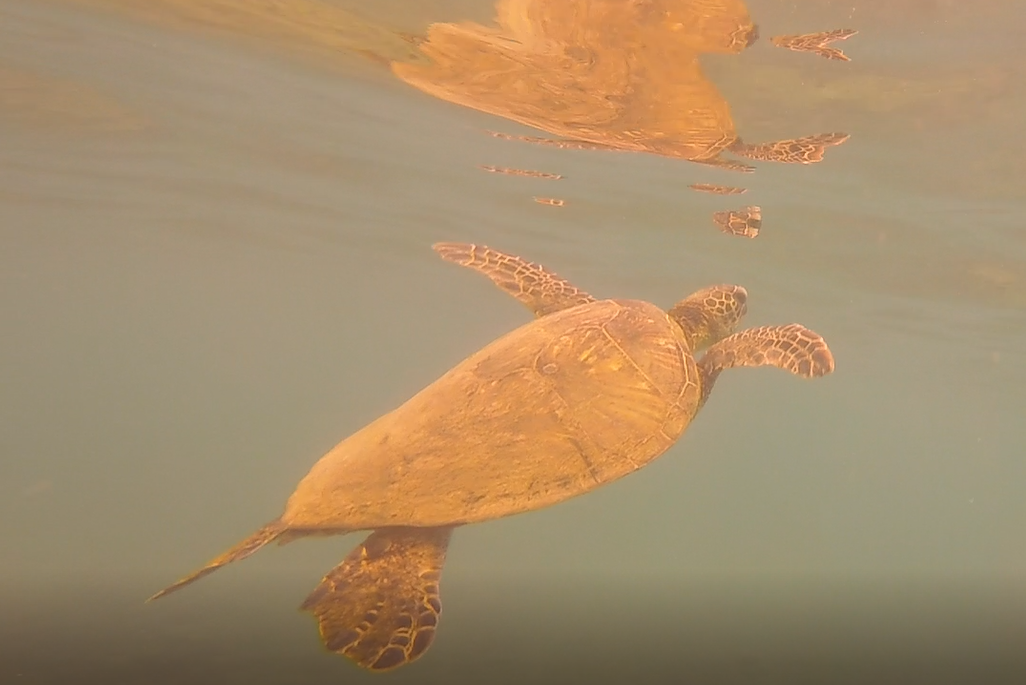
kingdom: Animalia
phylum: Chordata
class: Testudines
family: Cheloniidae
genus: Chelonia
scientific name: Chelonia mydas
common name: Green turtle
